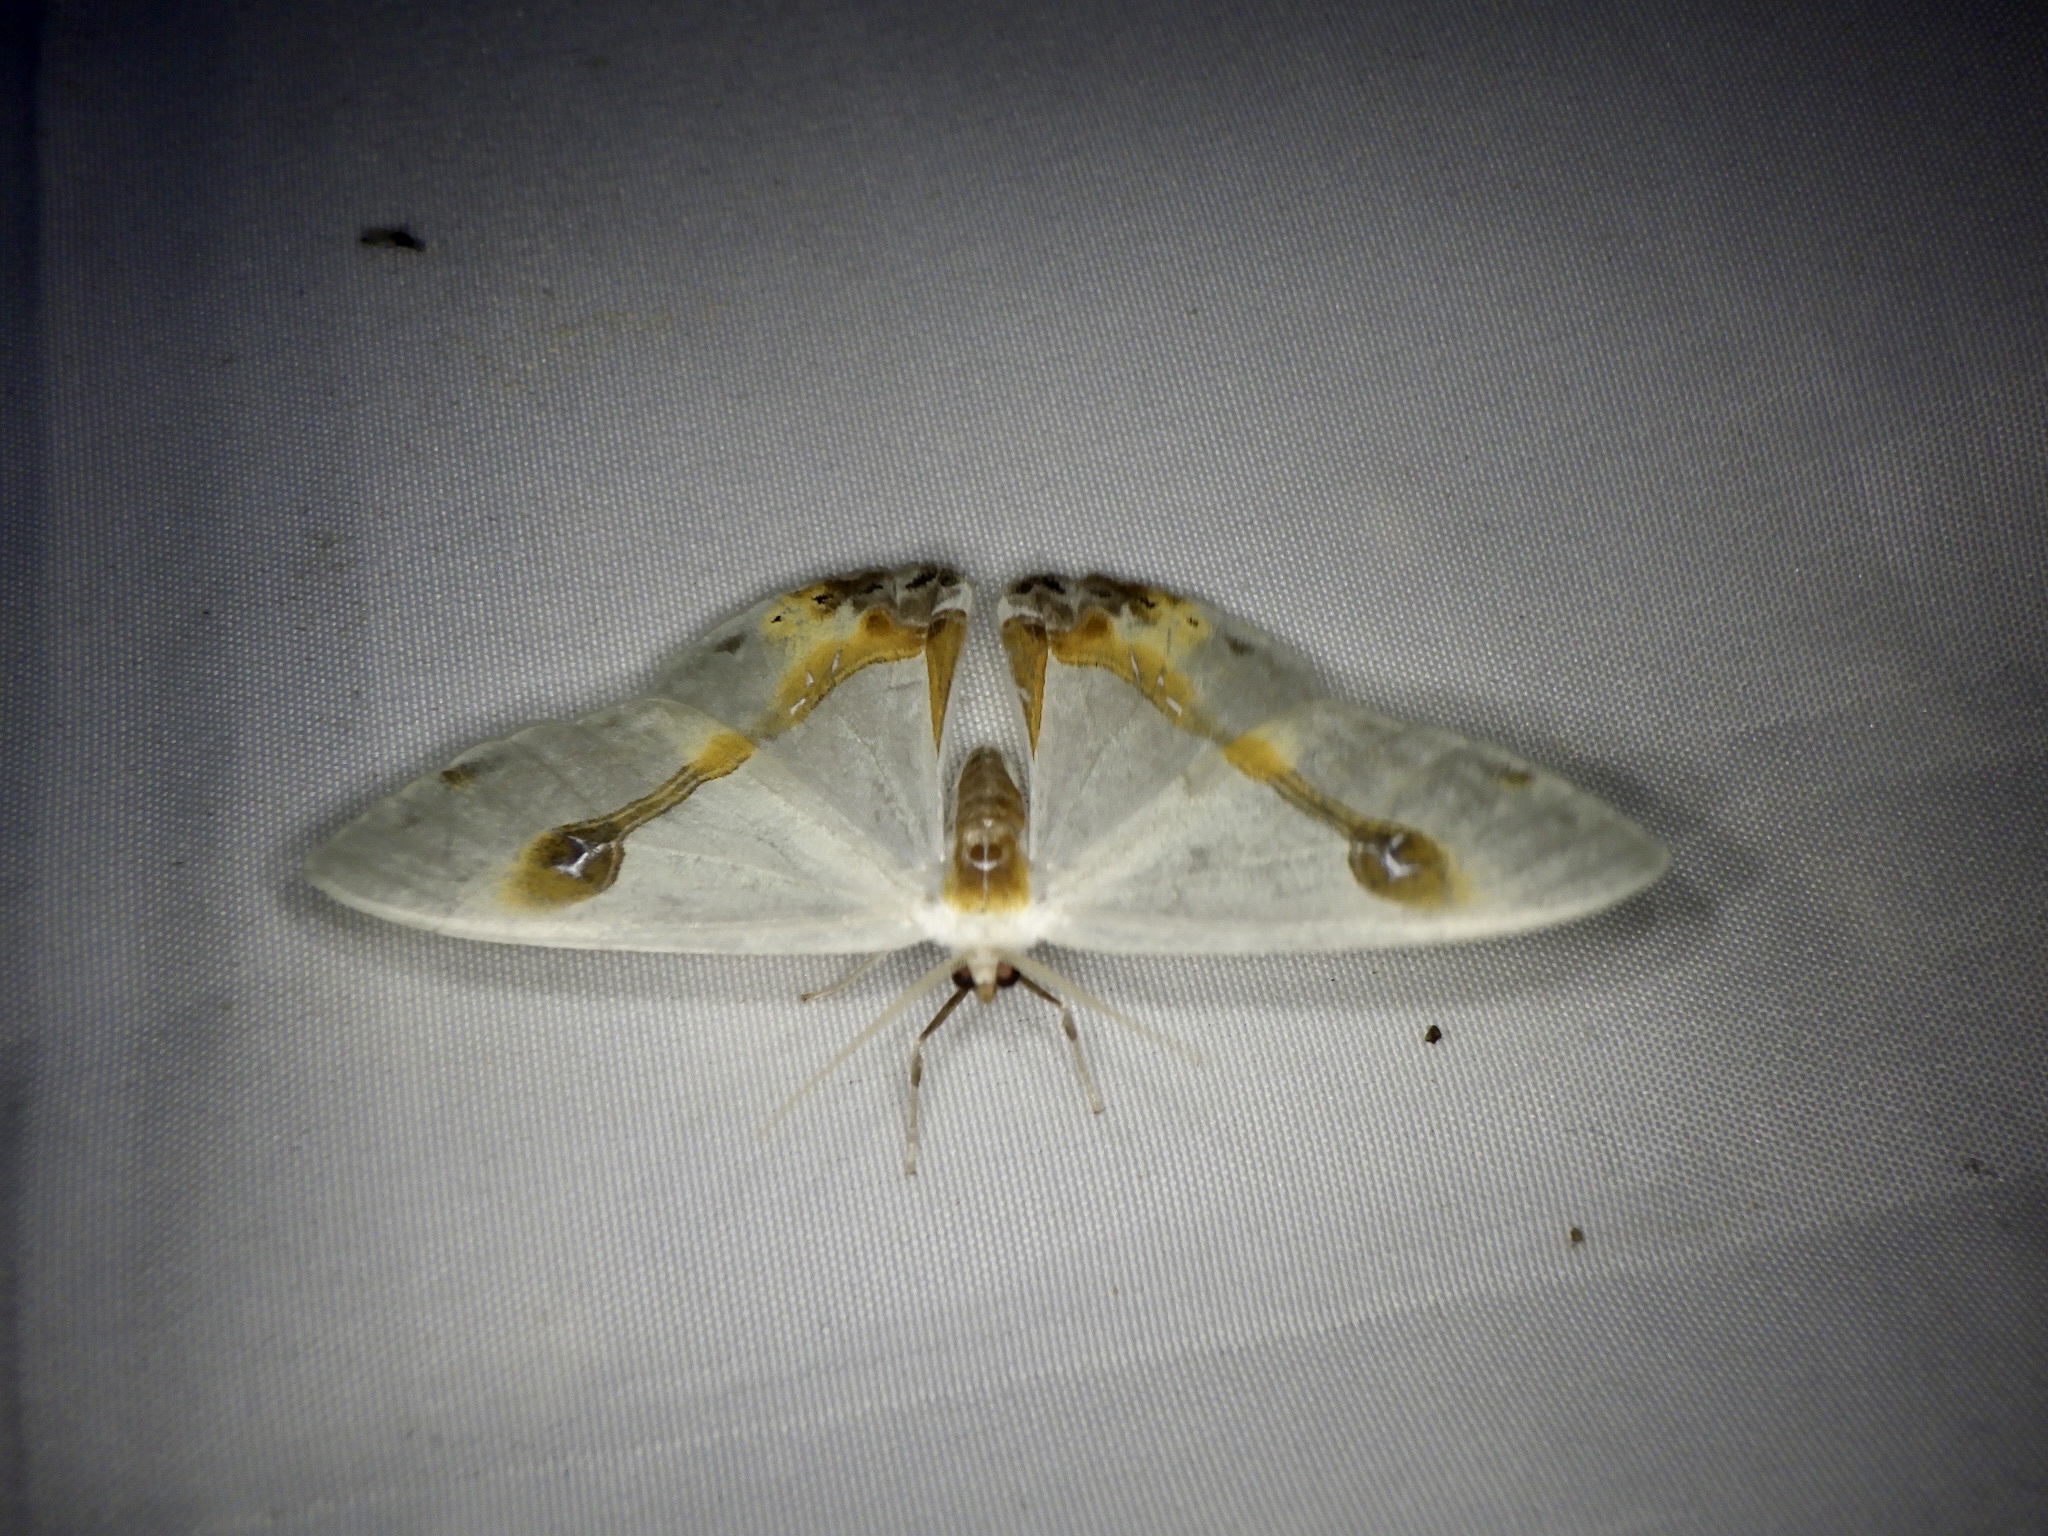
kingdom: Animalia
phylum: Arthropoda
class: Insecta
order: Lepidoptera
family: Drepanidae
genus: Macrocilix
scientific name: Macrocilix mysticata
